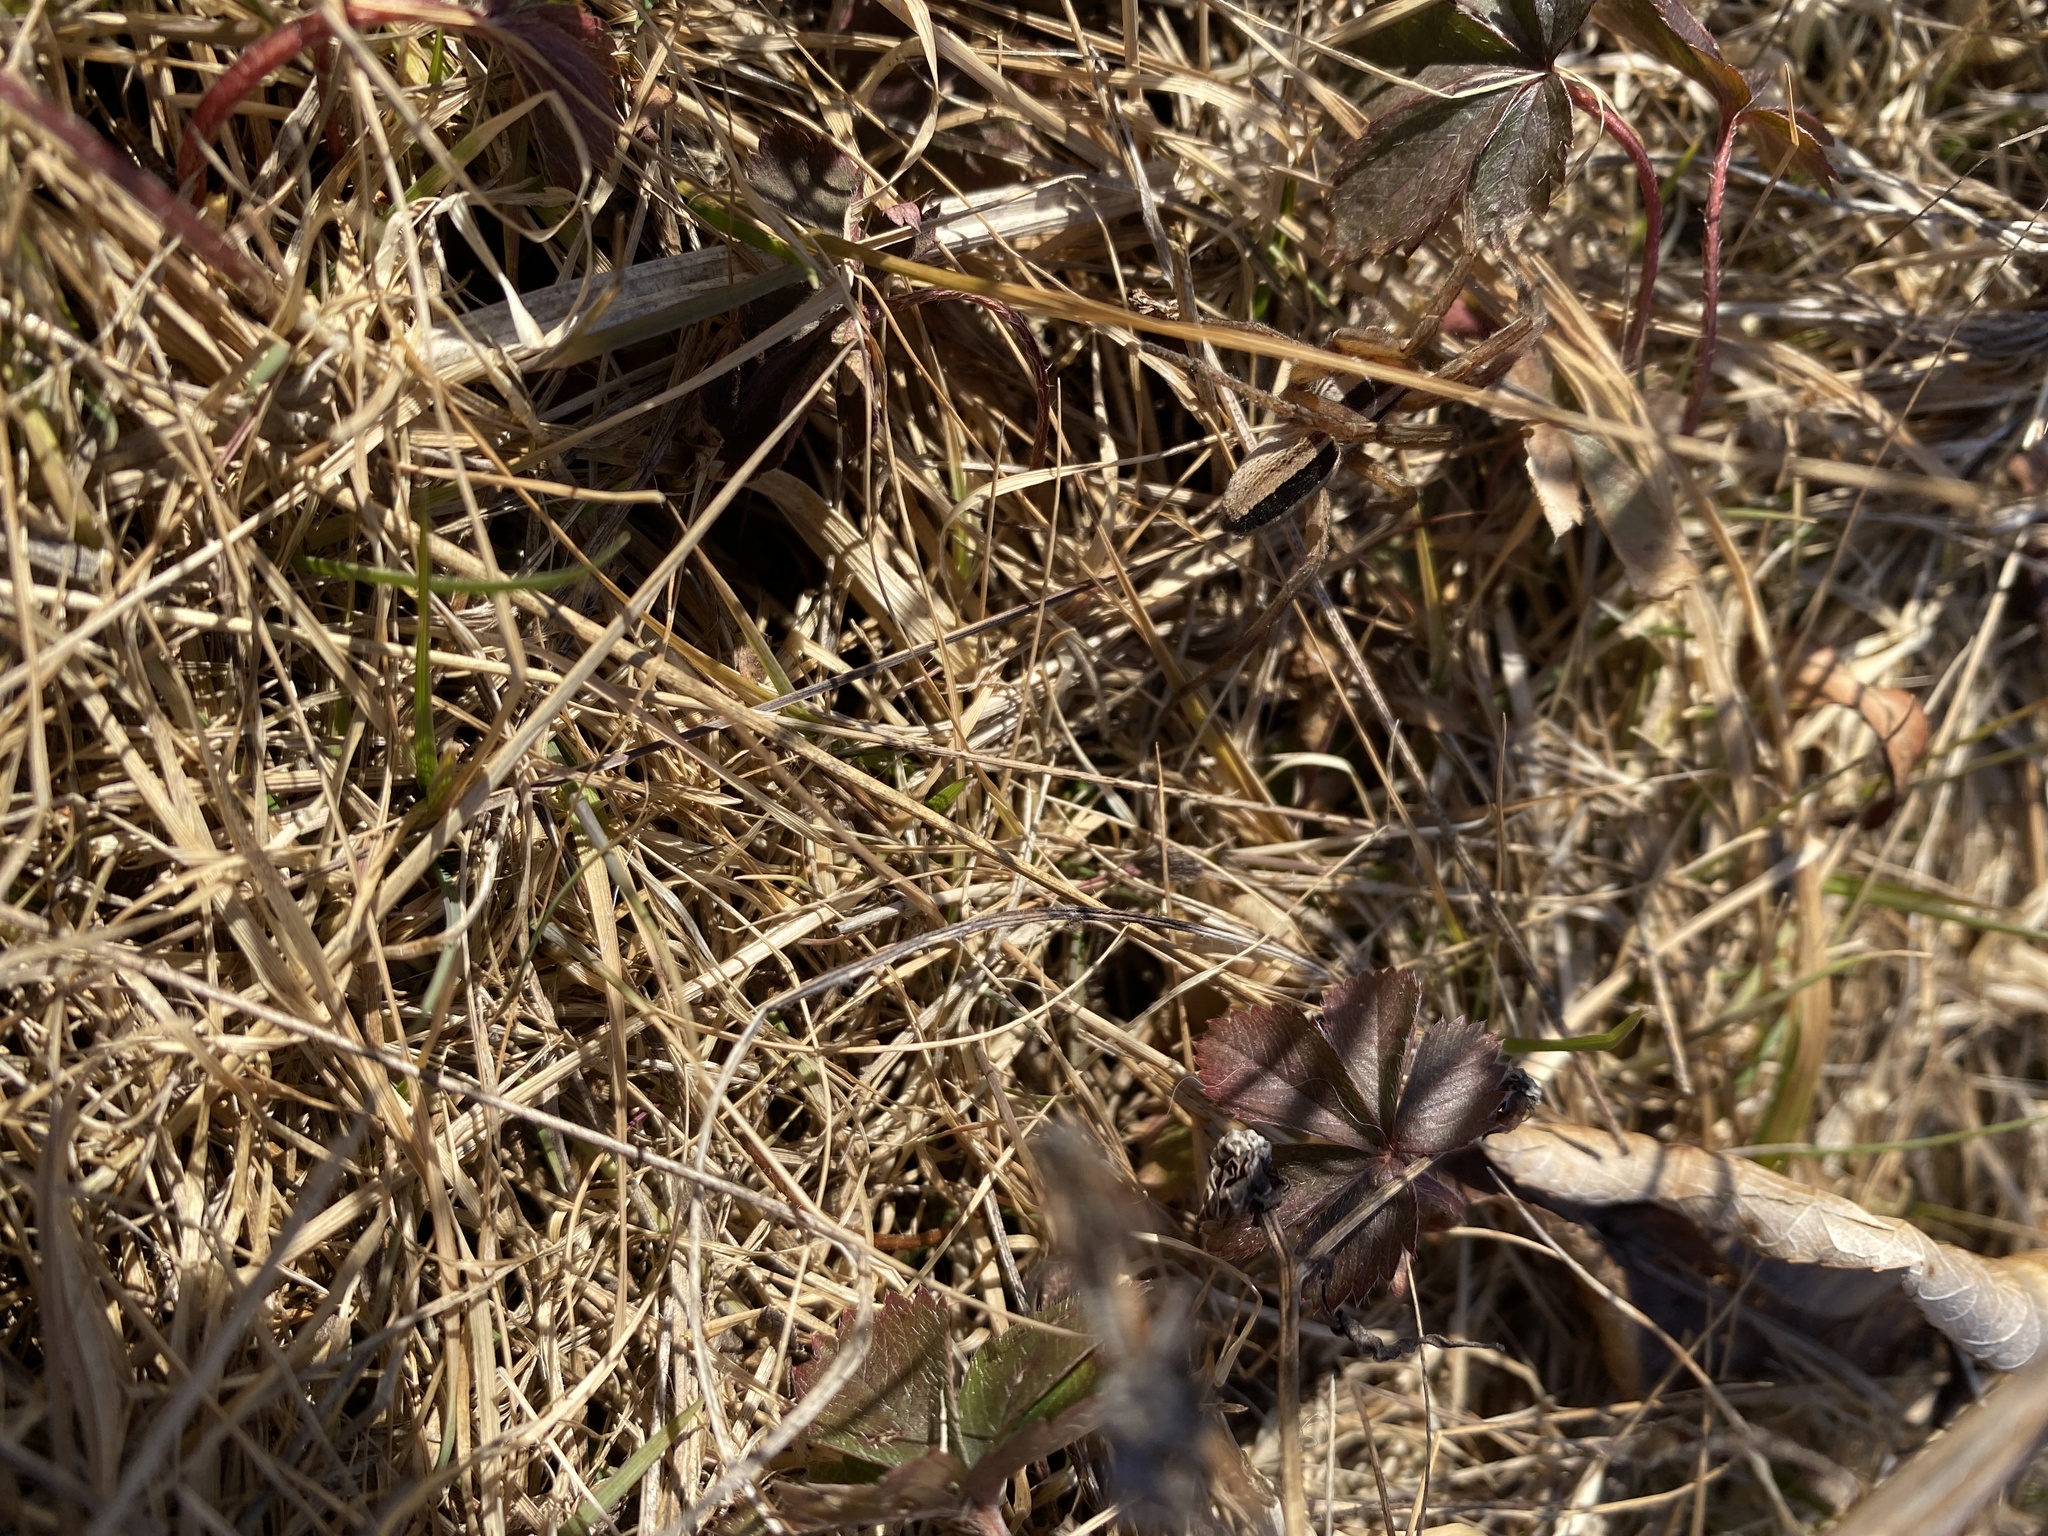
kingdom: Animalia
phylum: Arthropoda
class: Arachnida
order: Araneae
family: Lycosidae
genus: Rabidosa
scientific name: Rabidosa punctulata
